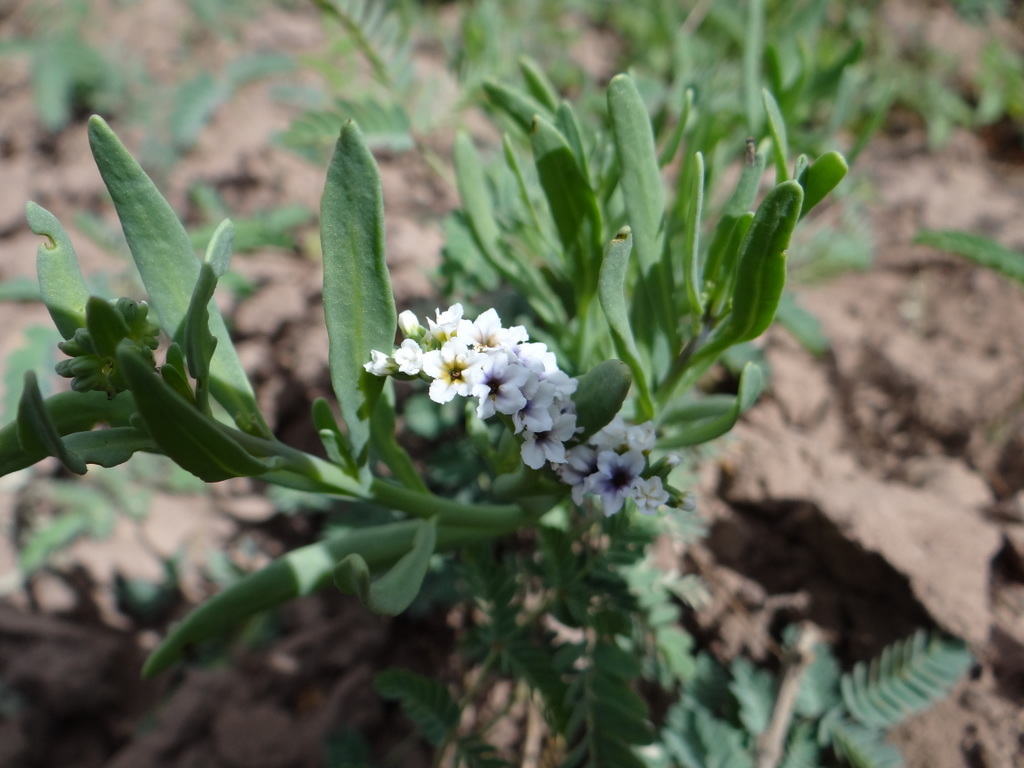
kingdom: Plantae
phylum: Tracheophyta
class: Magnoliopsida
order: Boraginales
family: Heliotropiaceae
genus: Heliotropium
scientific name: Heliotropium curassavicum
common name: Seaside heliotrope
